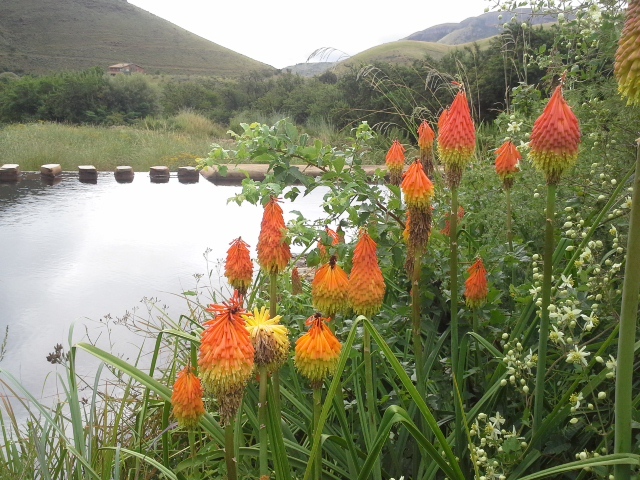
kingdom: Plantae
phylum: Tracheophyta
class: Liliopsida
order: Asparagales
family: Asphodelaceae
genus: Kniphofia
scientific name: Kniphofia linearifolia
